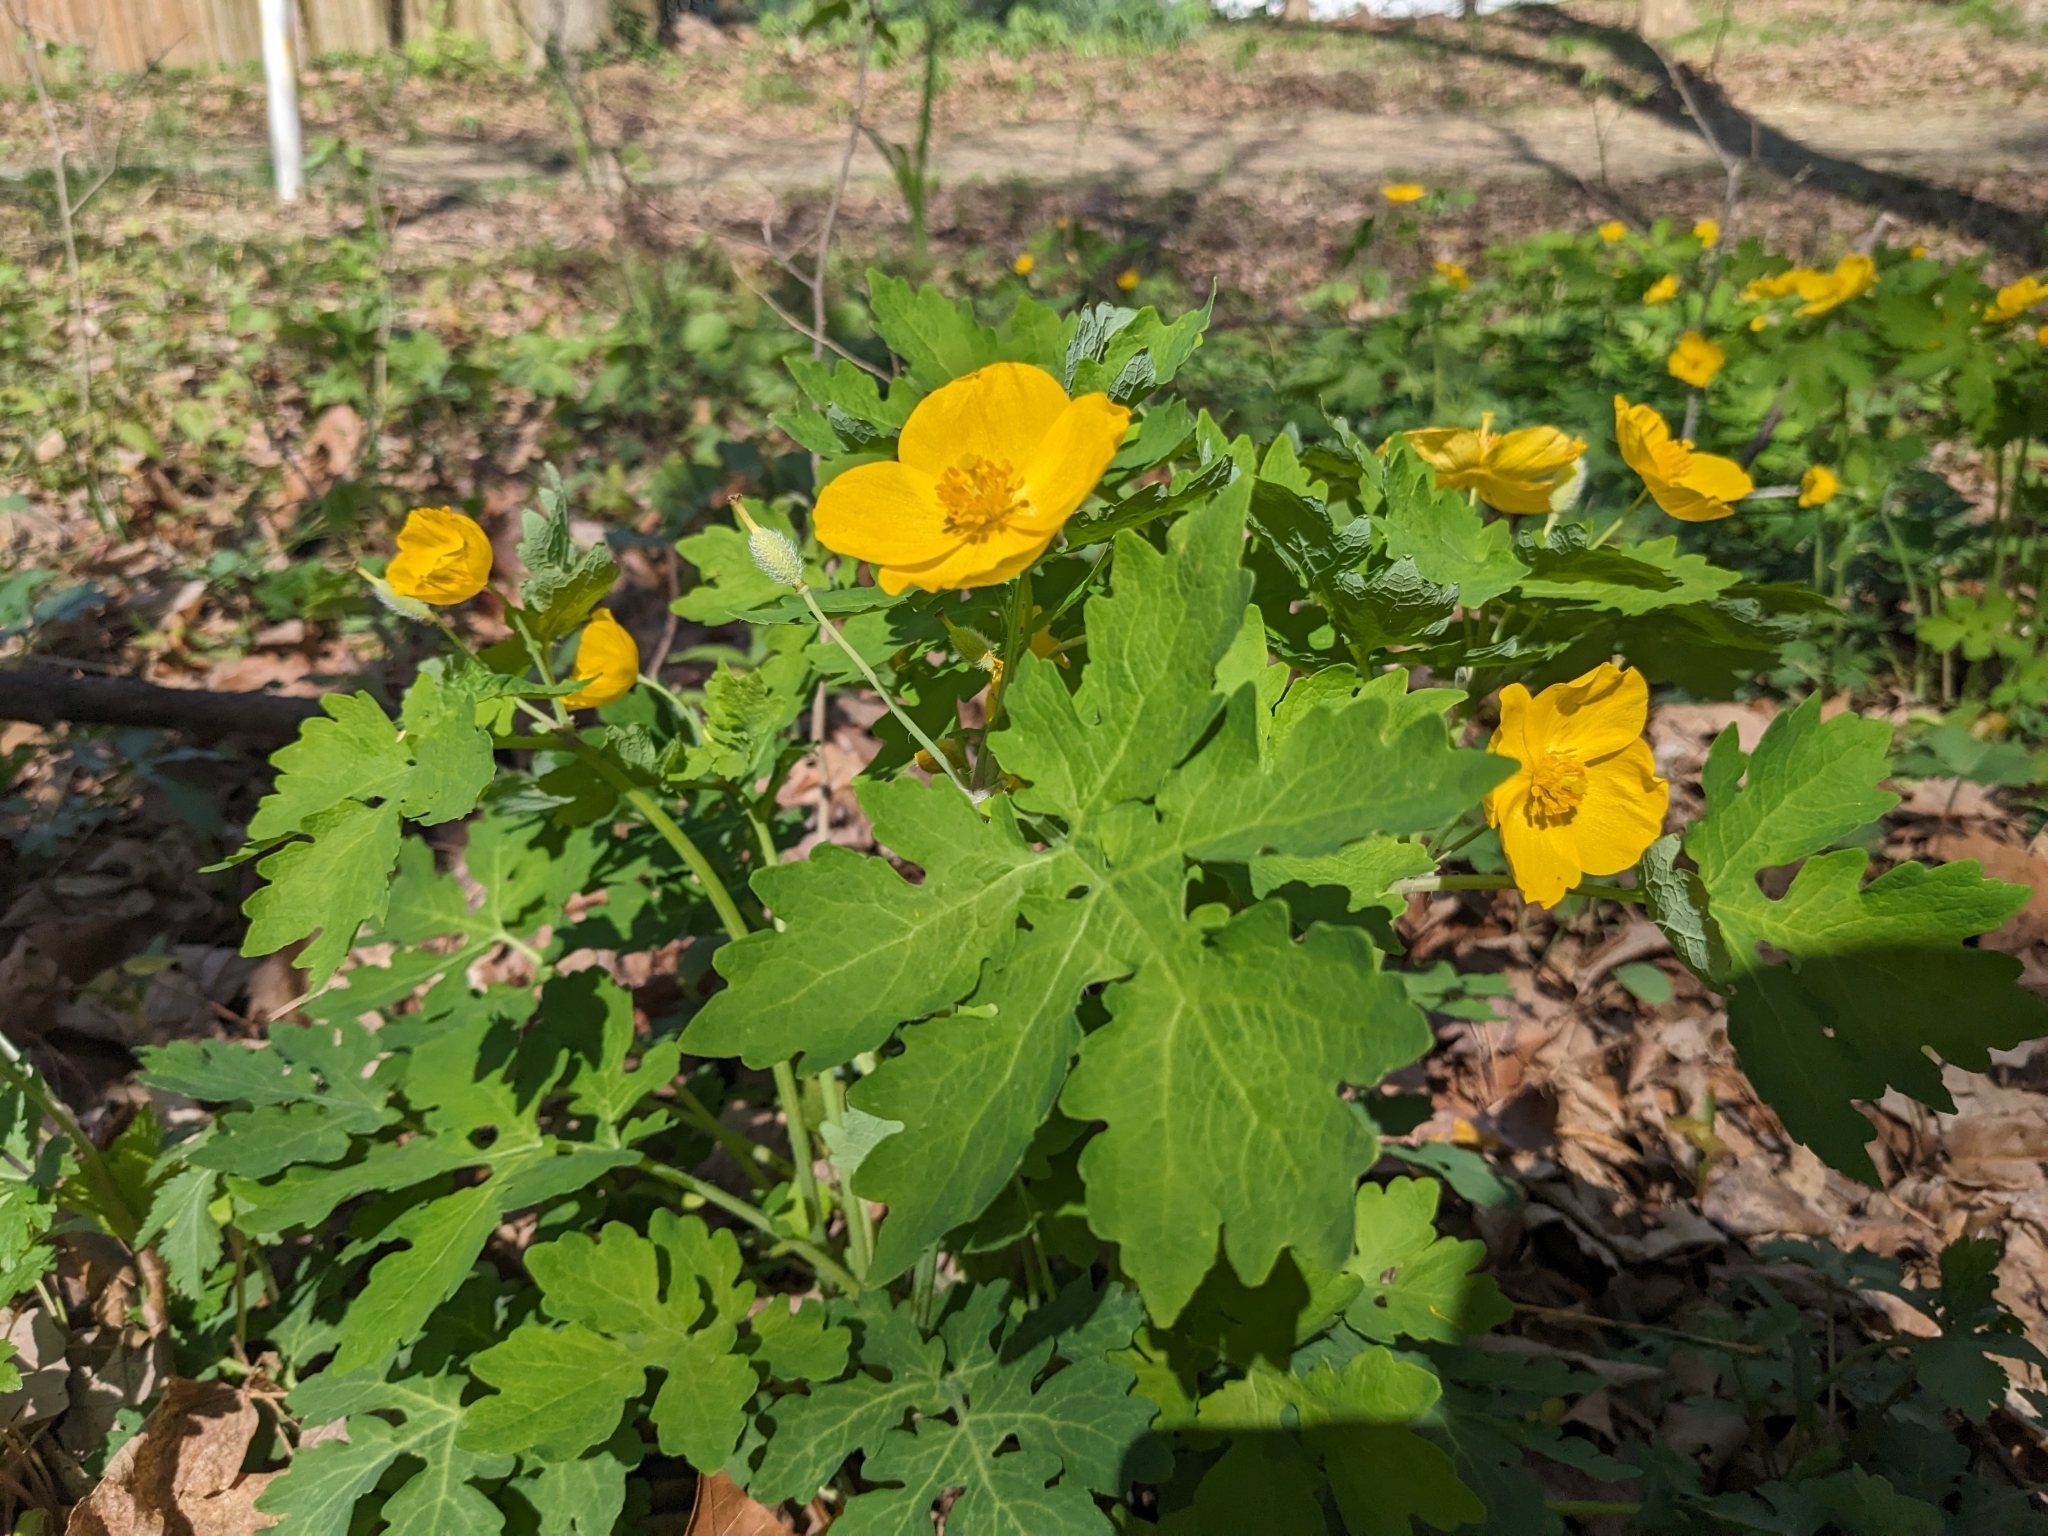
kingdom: Plantae
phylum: Tracheophyta
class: Magnoliopsida
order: Ranunculales
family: Papaveraceae
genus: Stylophorum
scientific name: Stylophorum diphyllum
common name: Celandine poppy
